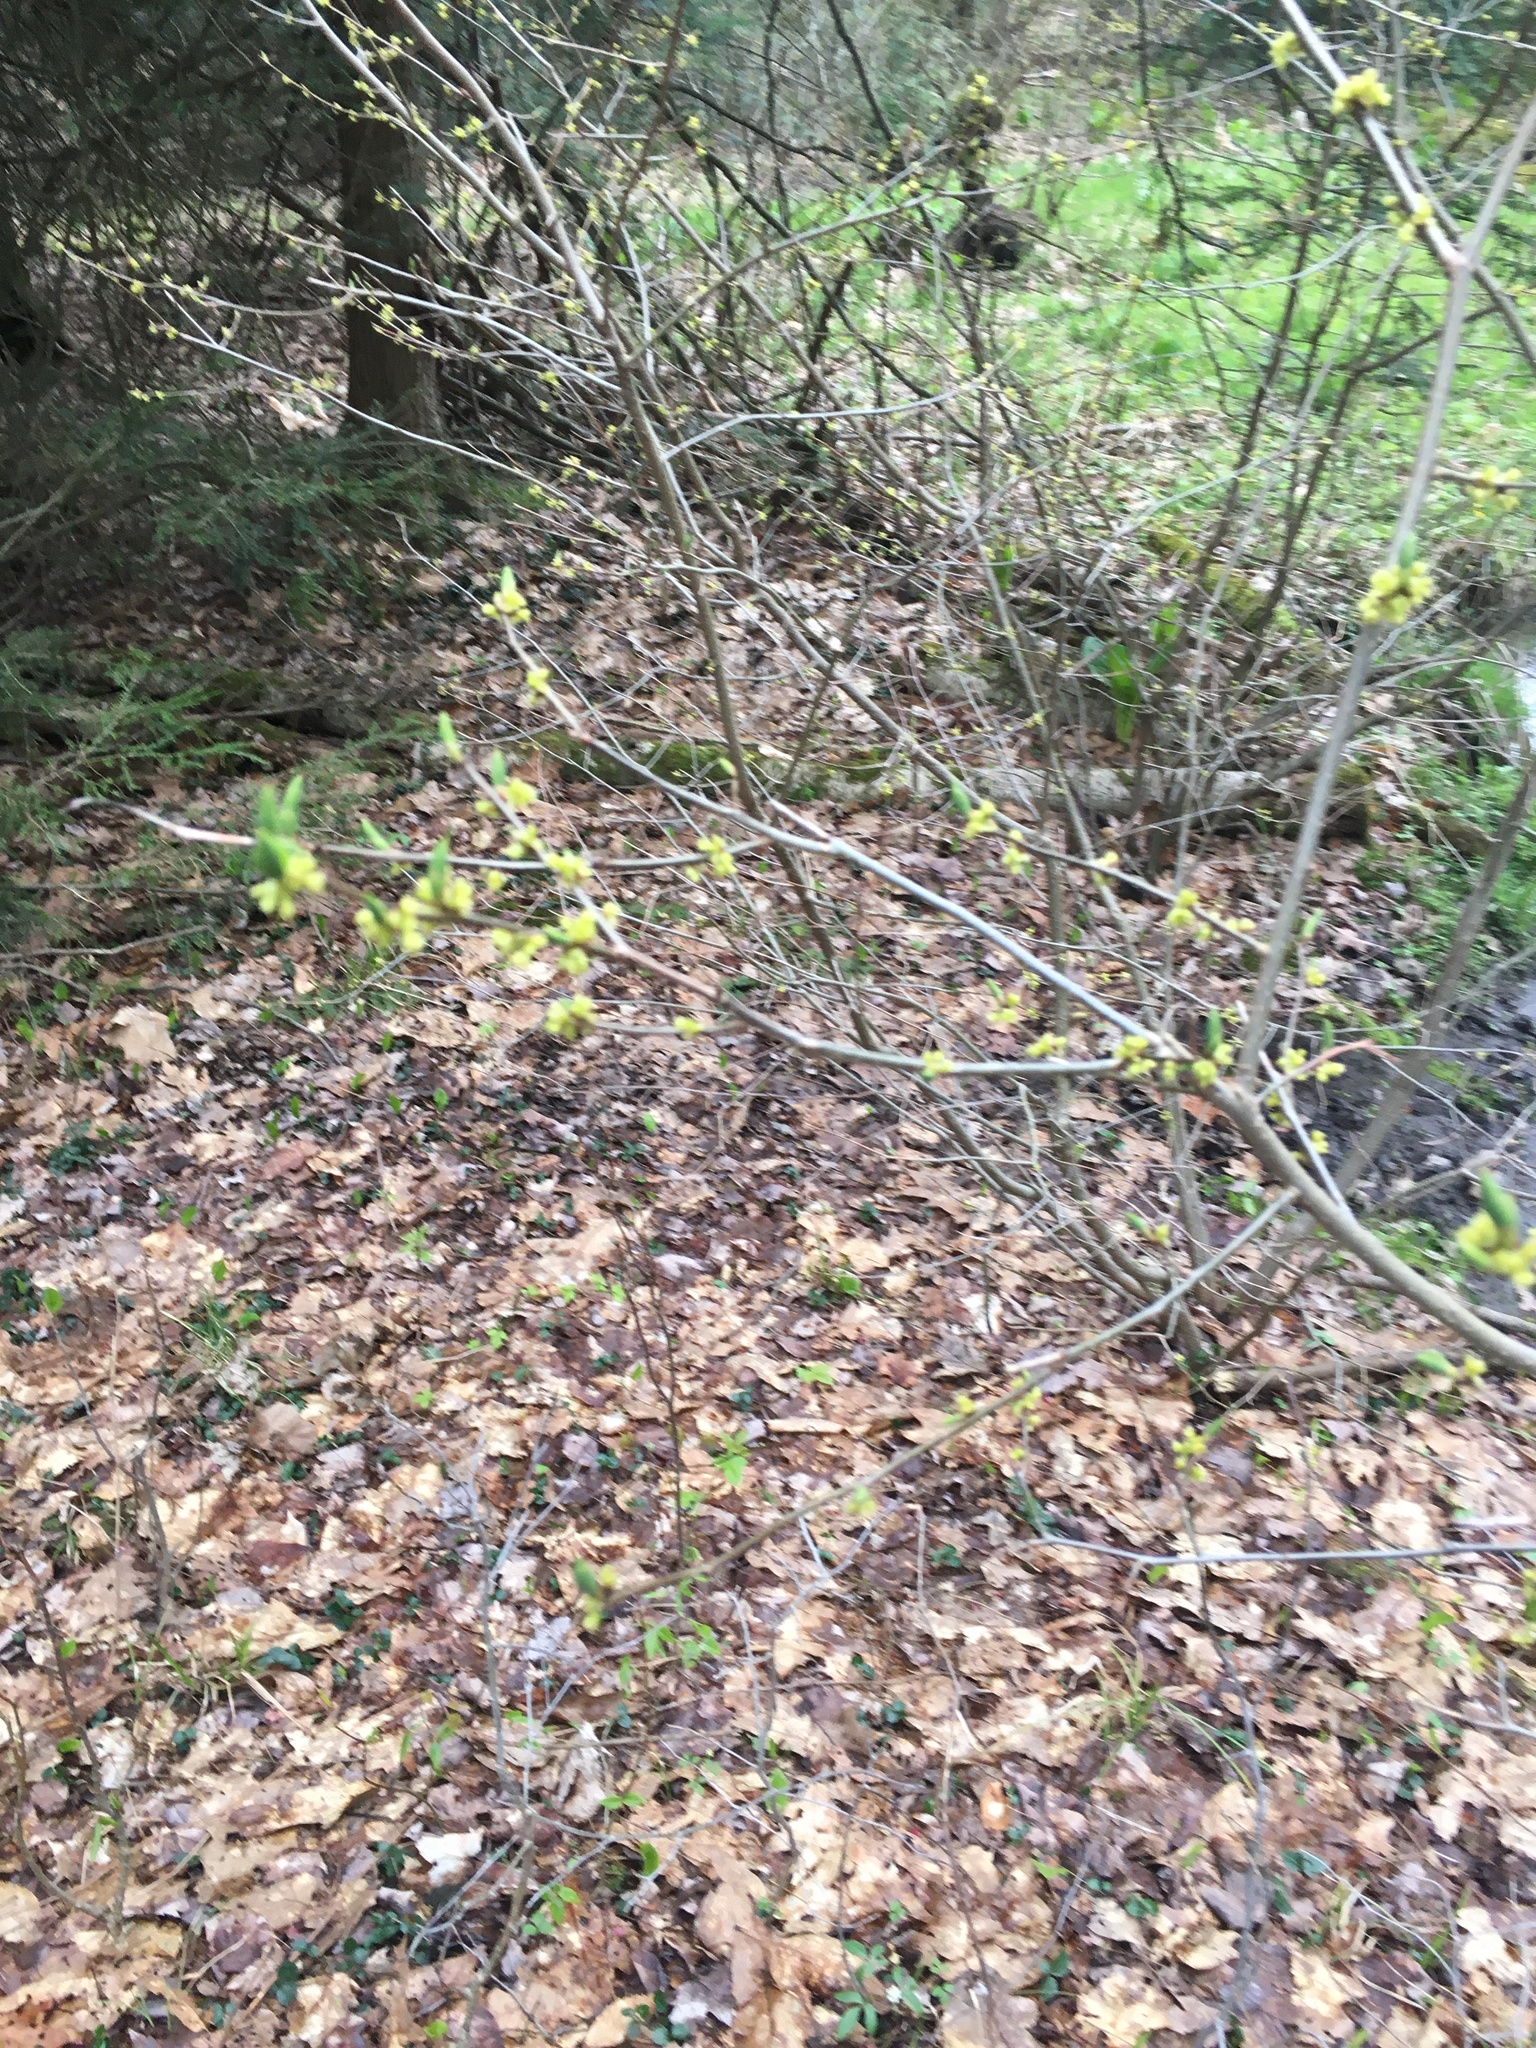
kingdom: Plantae
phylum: Tracheophyta
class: Magnoliopsida
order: Laurales
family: Lauraceae
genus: Lindera
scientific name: Lindera benzoin
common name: Spicebush
